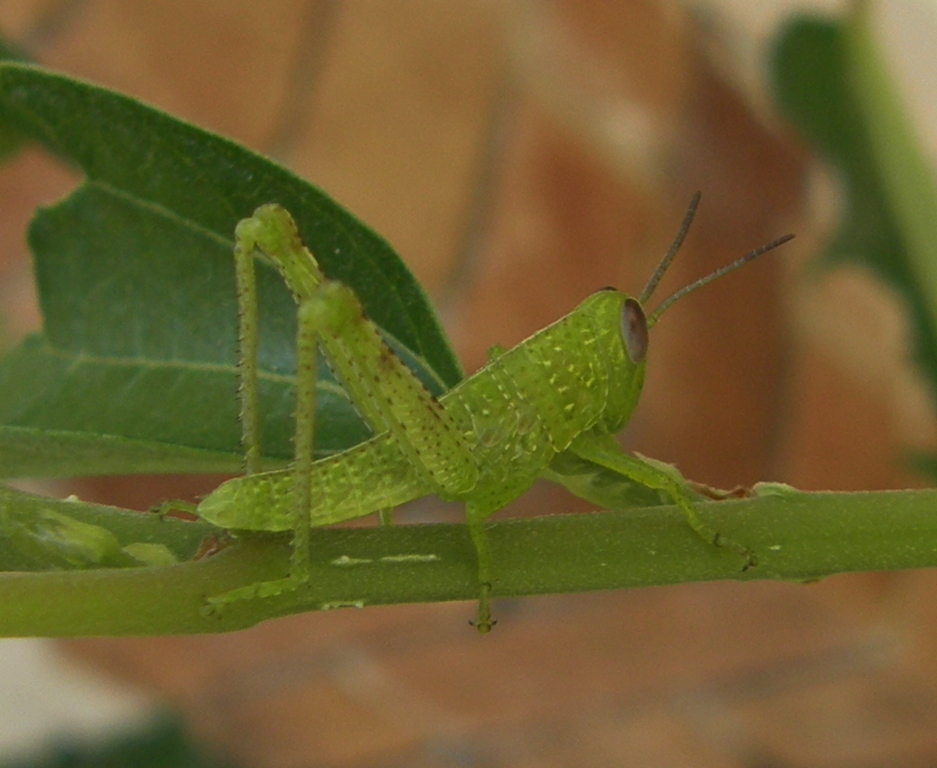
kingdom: Animalia
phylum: Arthropoda
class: Insecta
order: Orthoptera
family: Acrididae
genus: Valanga
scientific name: Valanga irregularis
